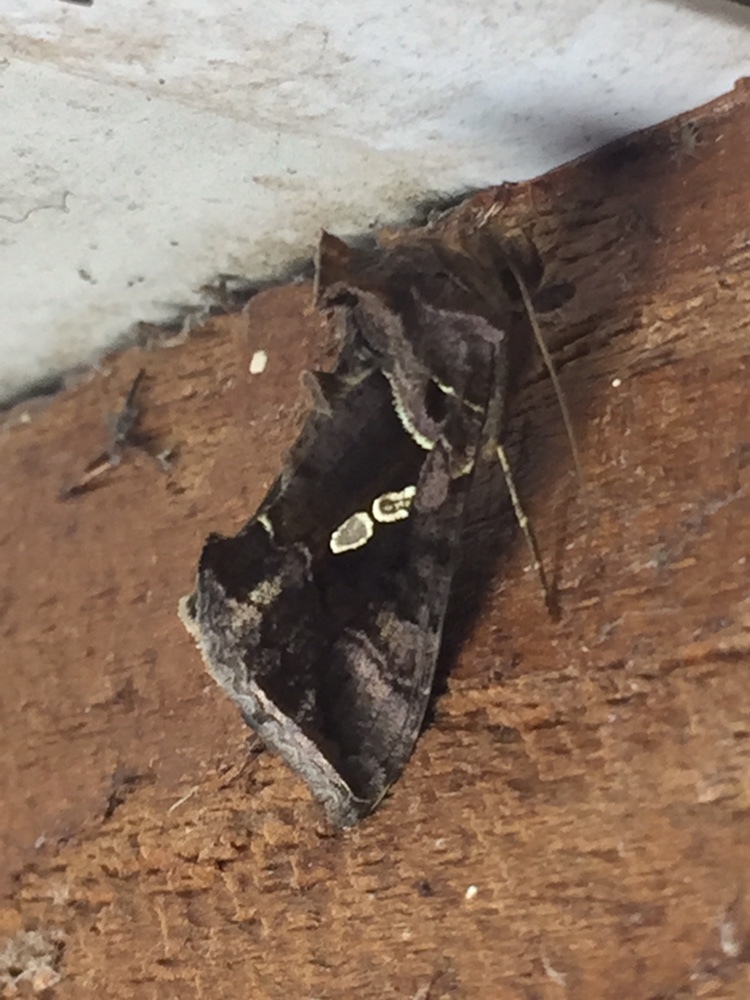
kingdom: Animalia
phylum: Arthropoda
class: Insecta
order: Lepidoptera
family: Noctuidae
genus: Chrysodeixis
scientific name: Chrysodeixis eriosoma
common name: Green garden looper
